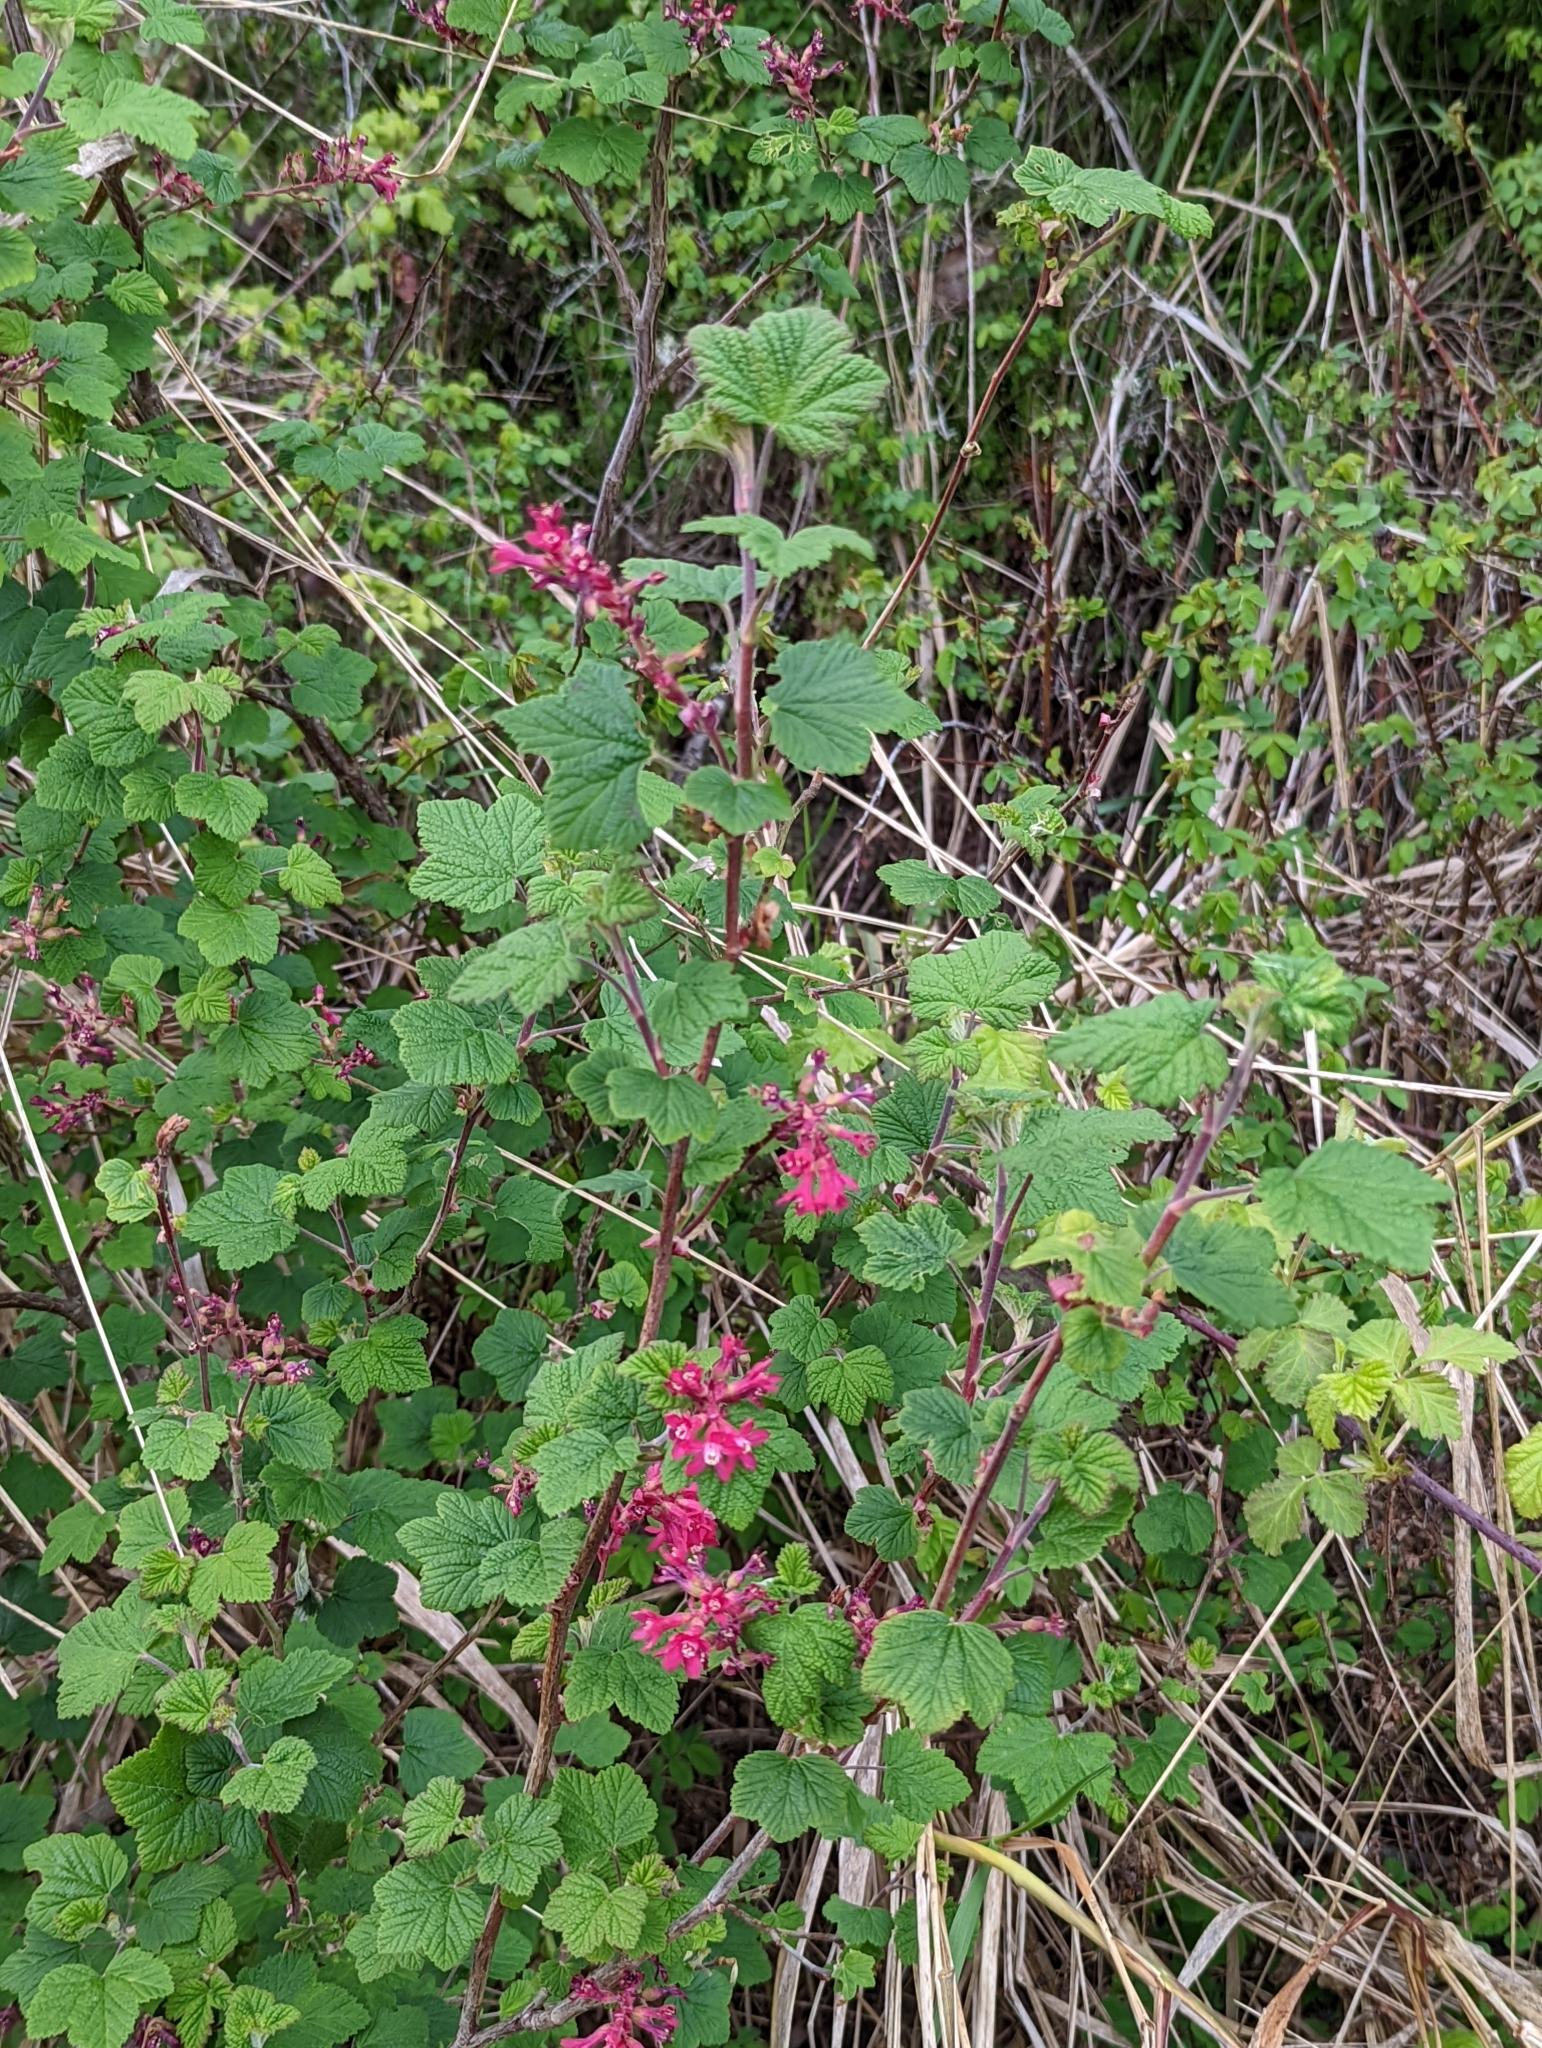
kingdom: Plantae
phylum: Tracheophyta
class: Magnoliopsida
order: Saxifragales
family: Grossulariaceae
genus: Ribes
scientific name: Ribes sanguineum
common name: Flowering currant
